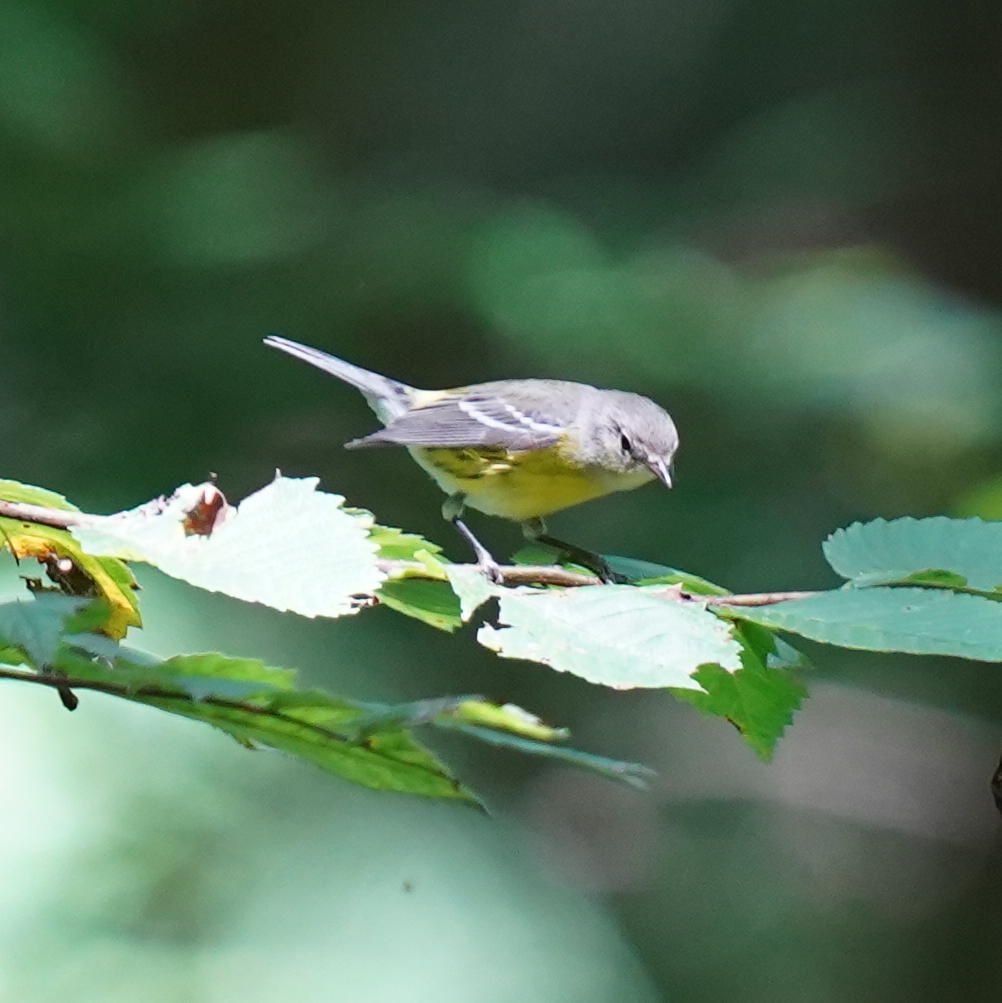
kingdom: Animalia
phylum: Chordata
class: Aves
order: Passeriformes
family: Parulidae
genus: Setophaga
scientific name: Setophaga magnolia
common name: Magnolia warbler
